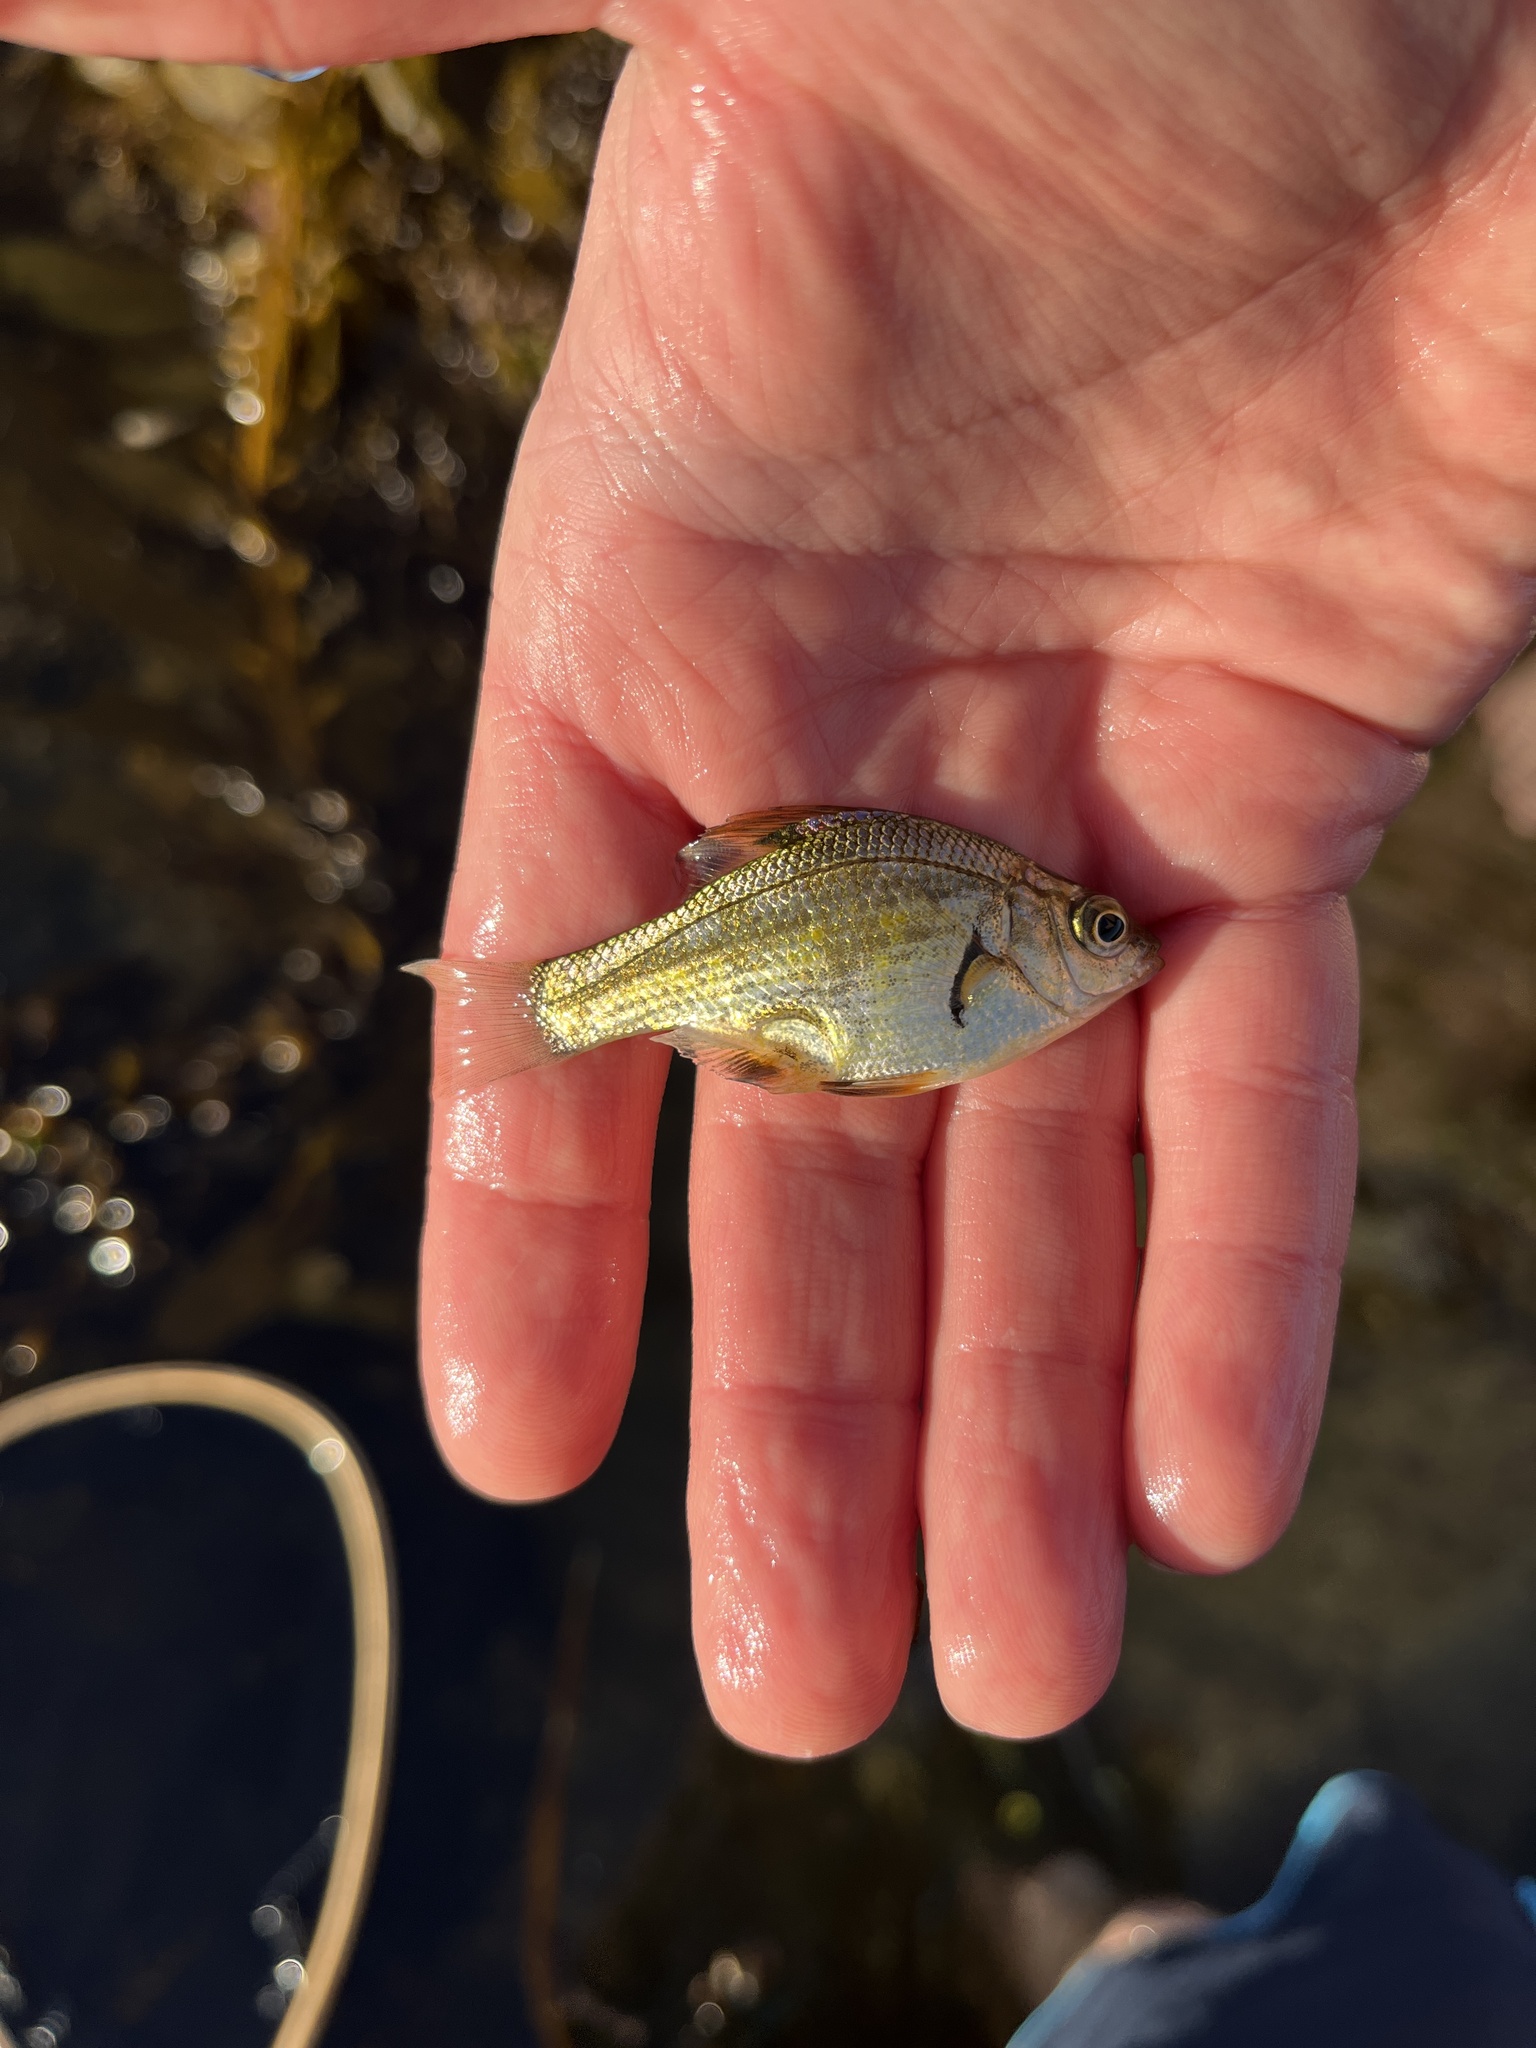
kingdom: Animalia
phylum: Chordata
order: Perciformes
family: Embiotocidae
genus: Micrometrus
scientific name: Micrometrus minimus
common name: Dwarf perch
